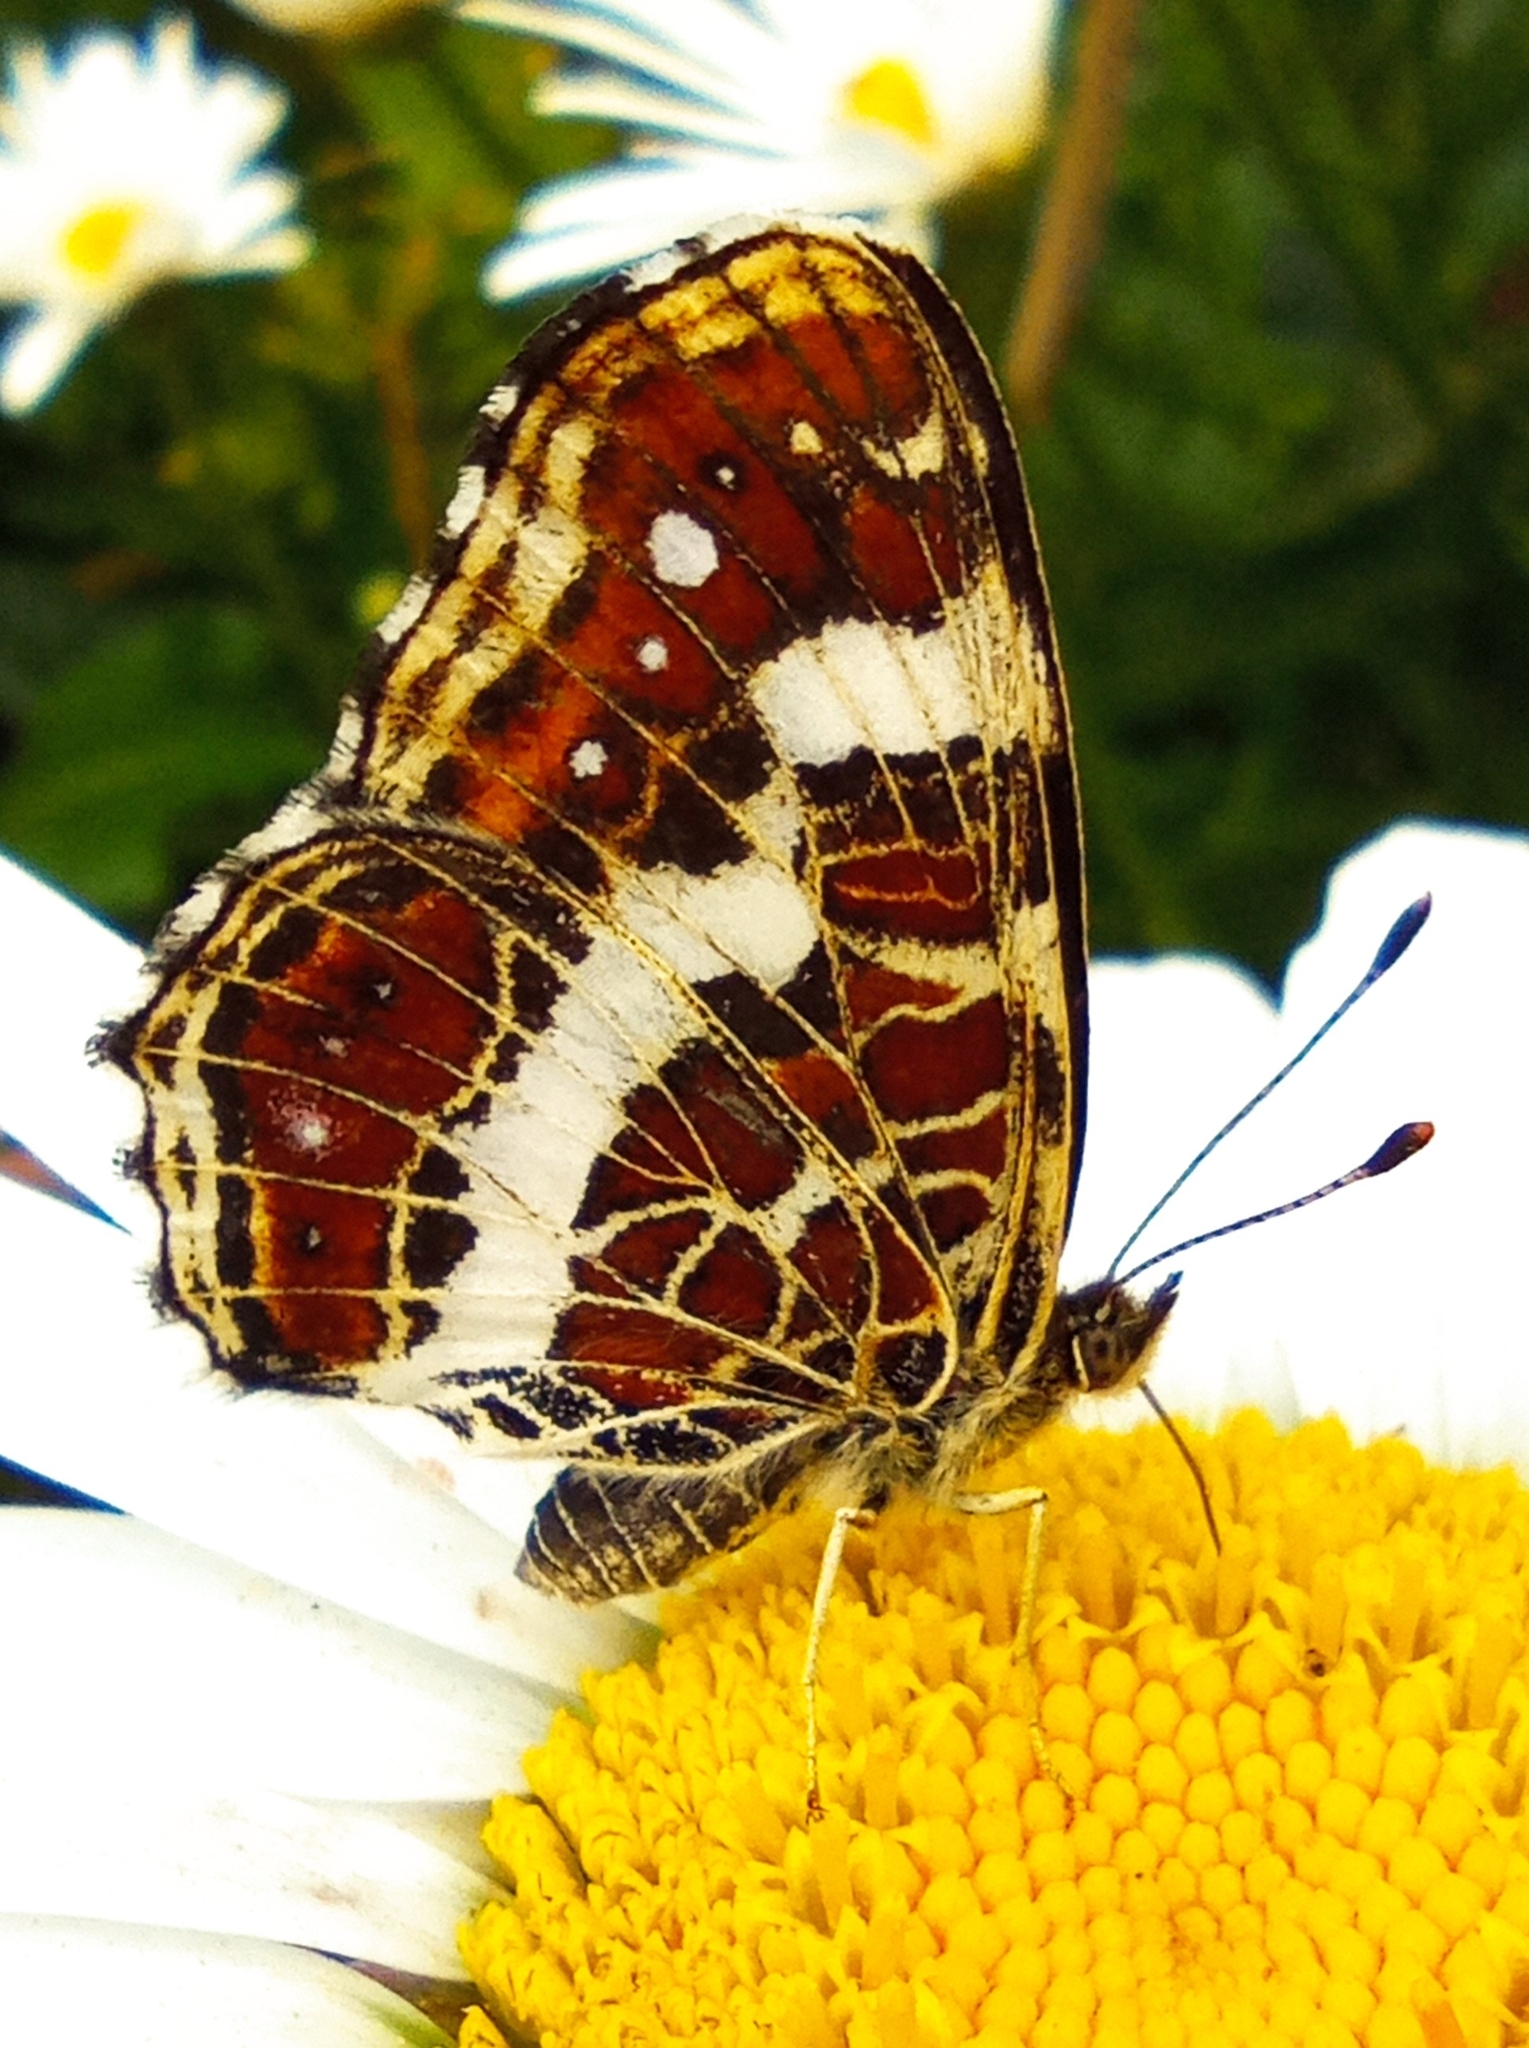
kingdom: Animalia
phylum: Arthropoda
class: Insecta
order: Lepidoptera
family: Nymphalidae
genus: Araschnia
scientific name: Araschnia levana
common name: Map butterfly
